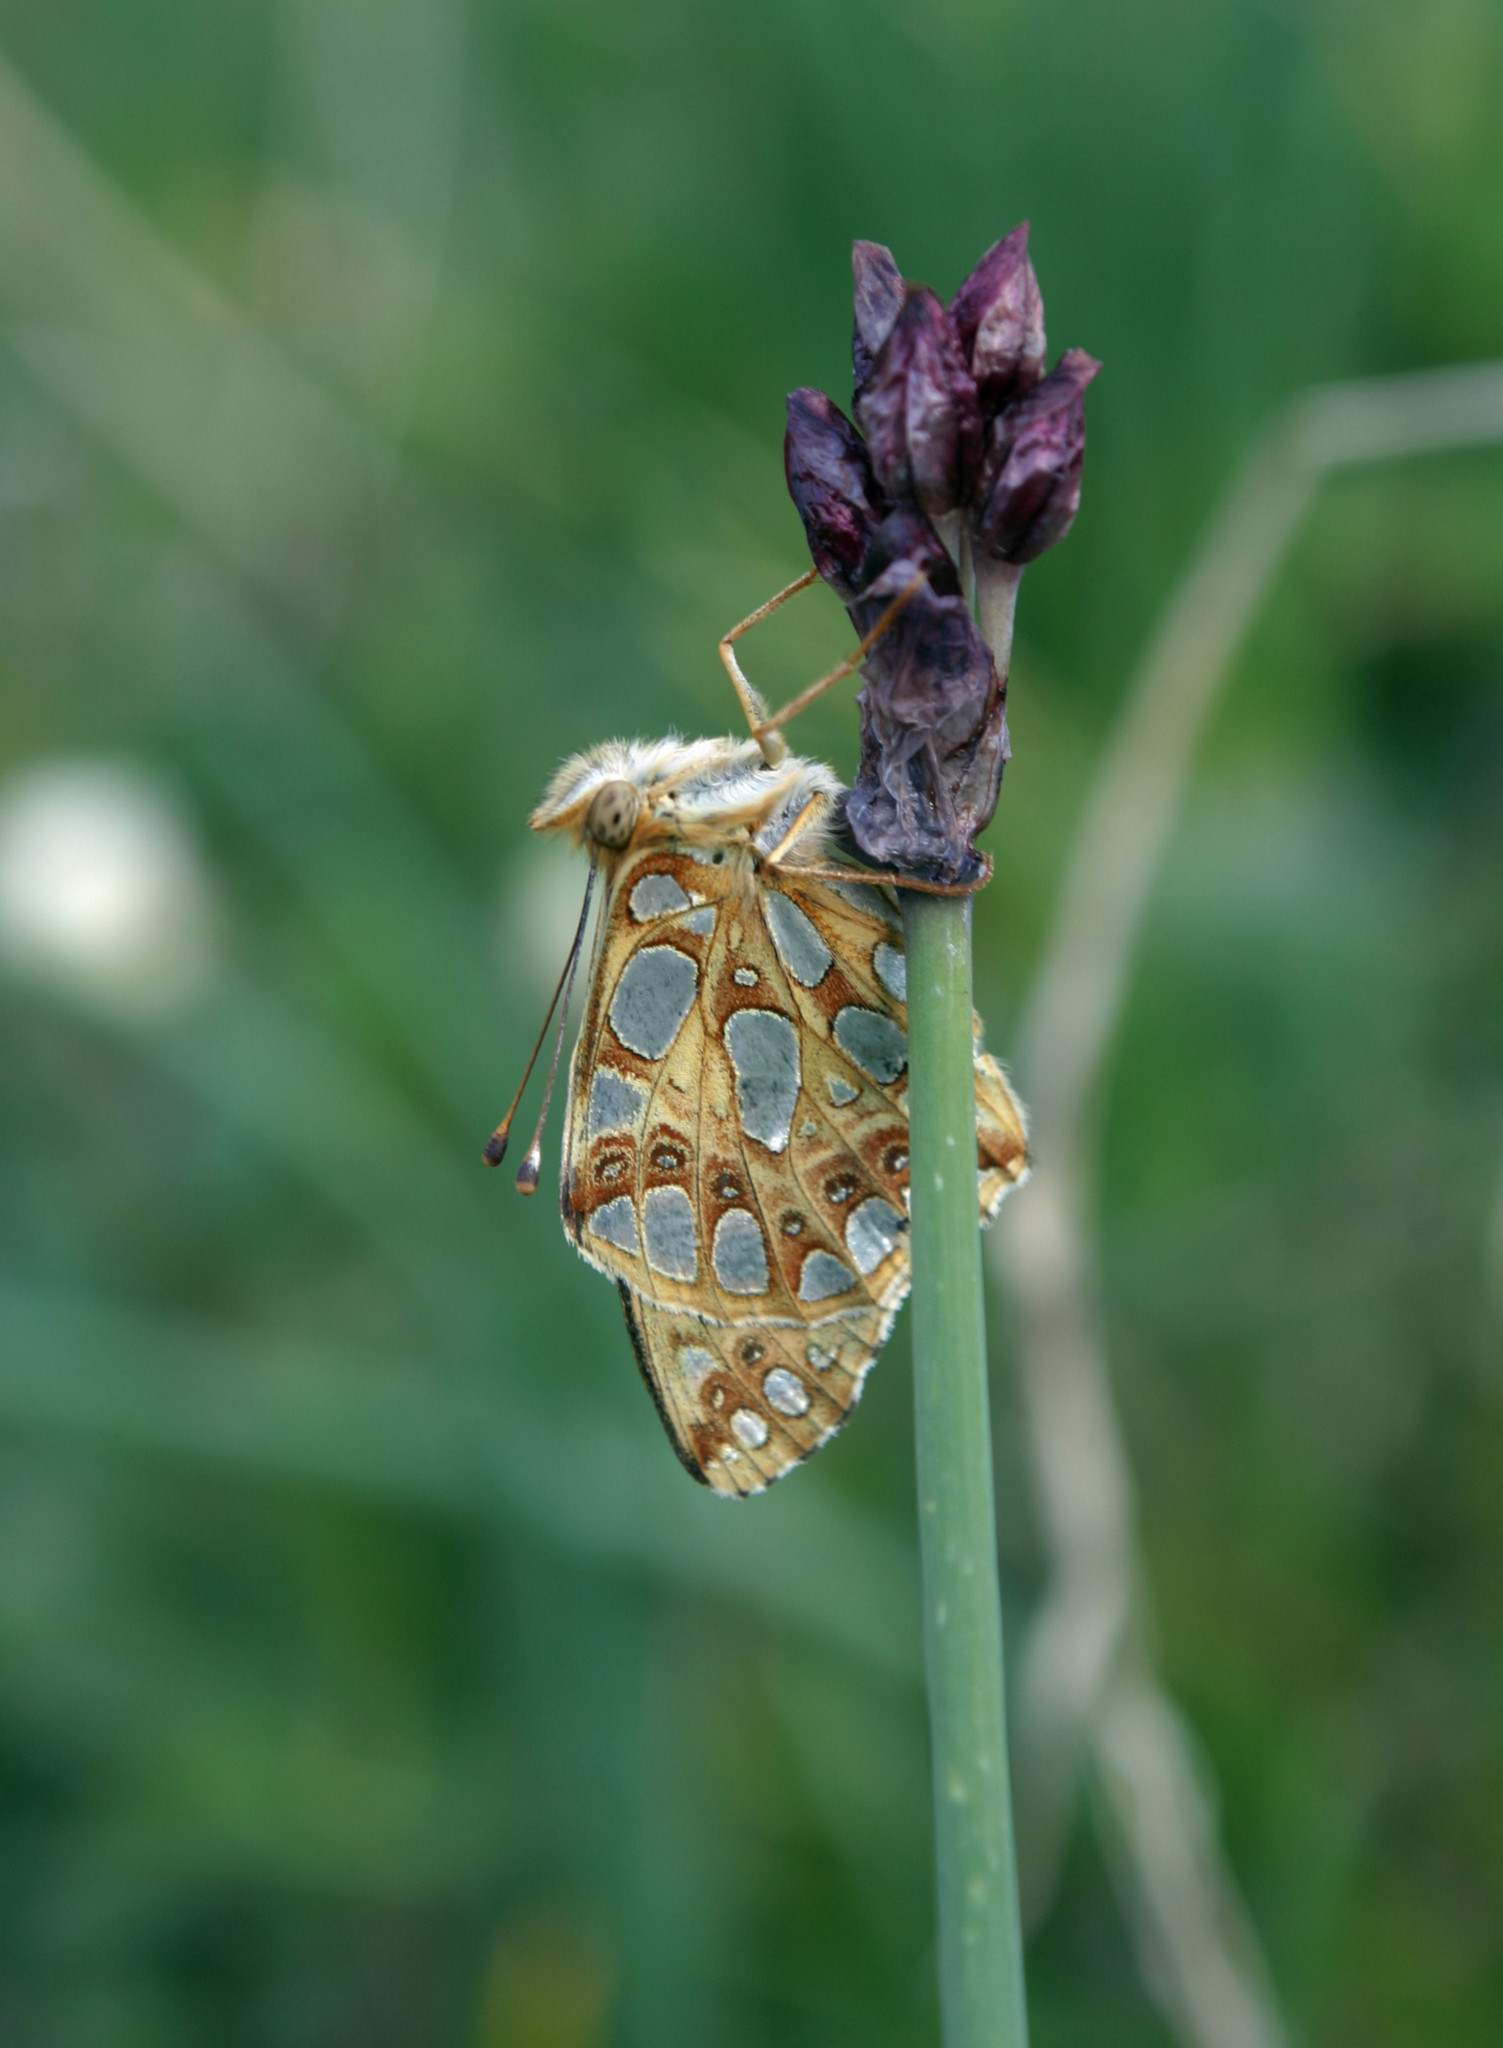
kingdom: Plantae
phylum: Tracheophyta
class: Liliopsida
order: Asparagales
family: Amaryllidaceae
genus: Allium
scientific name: Allium atrosanguineum
